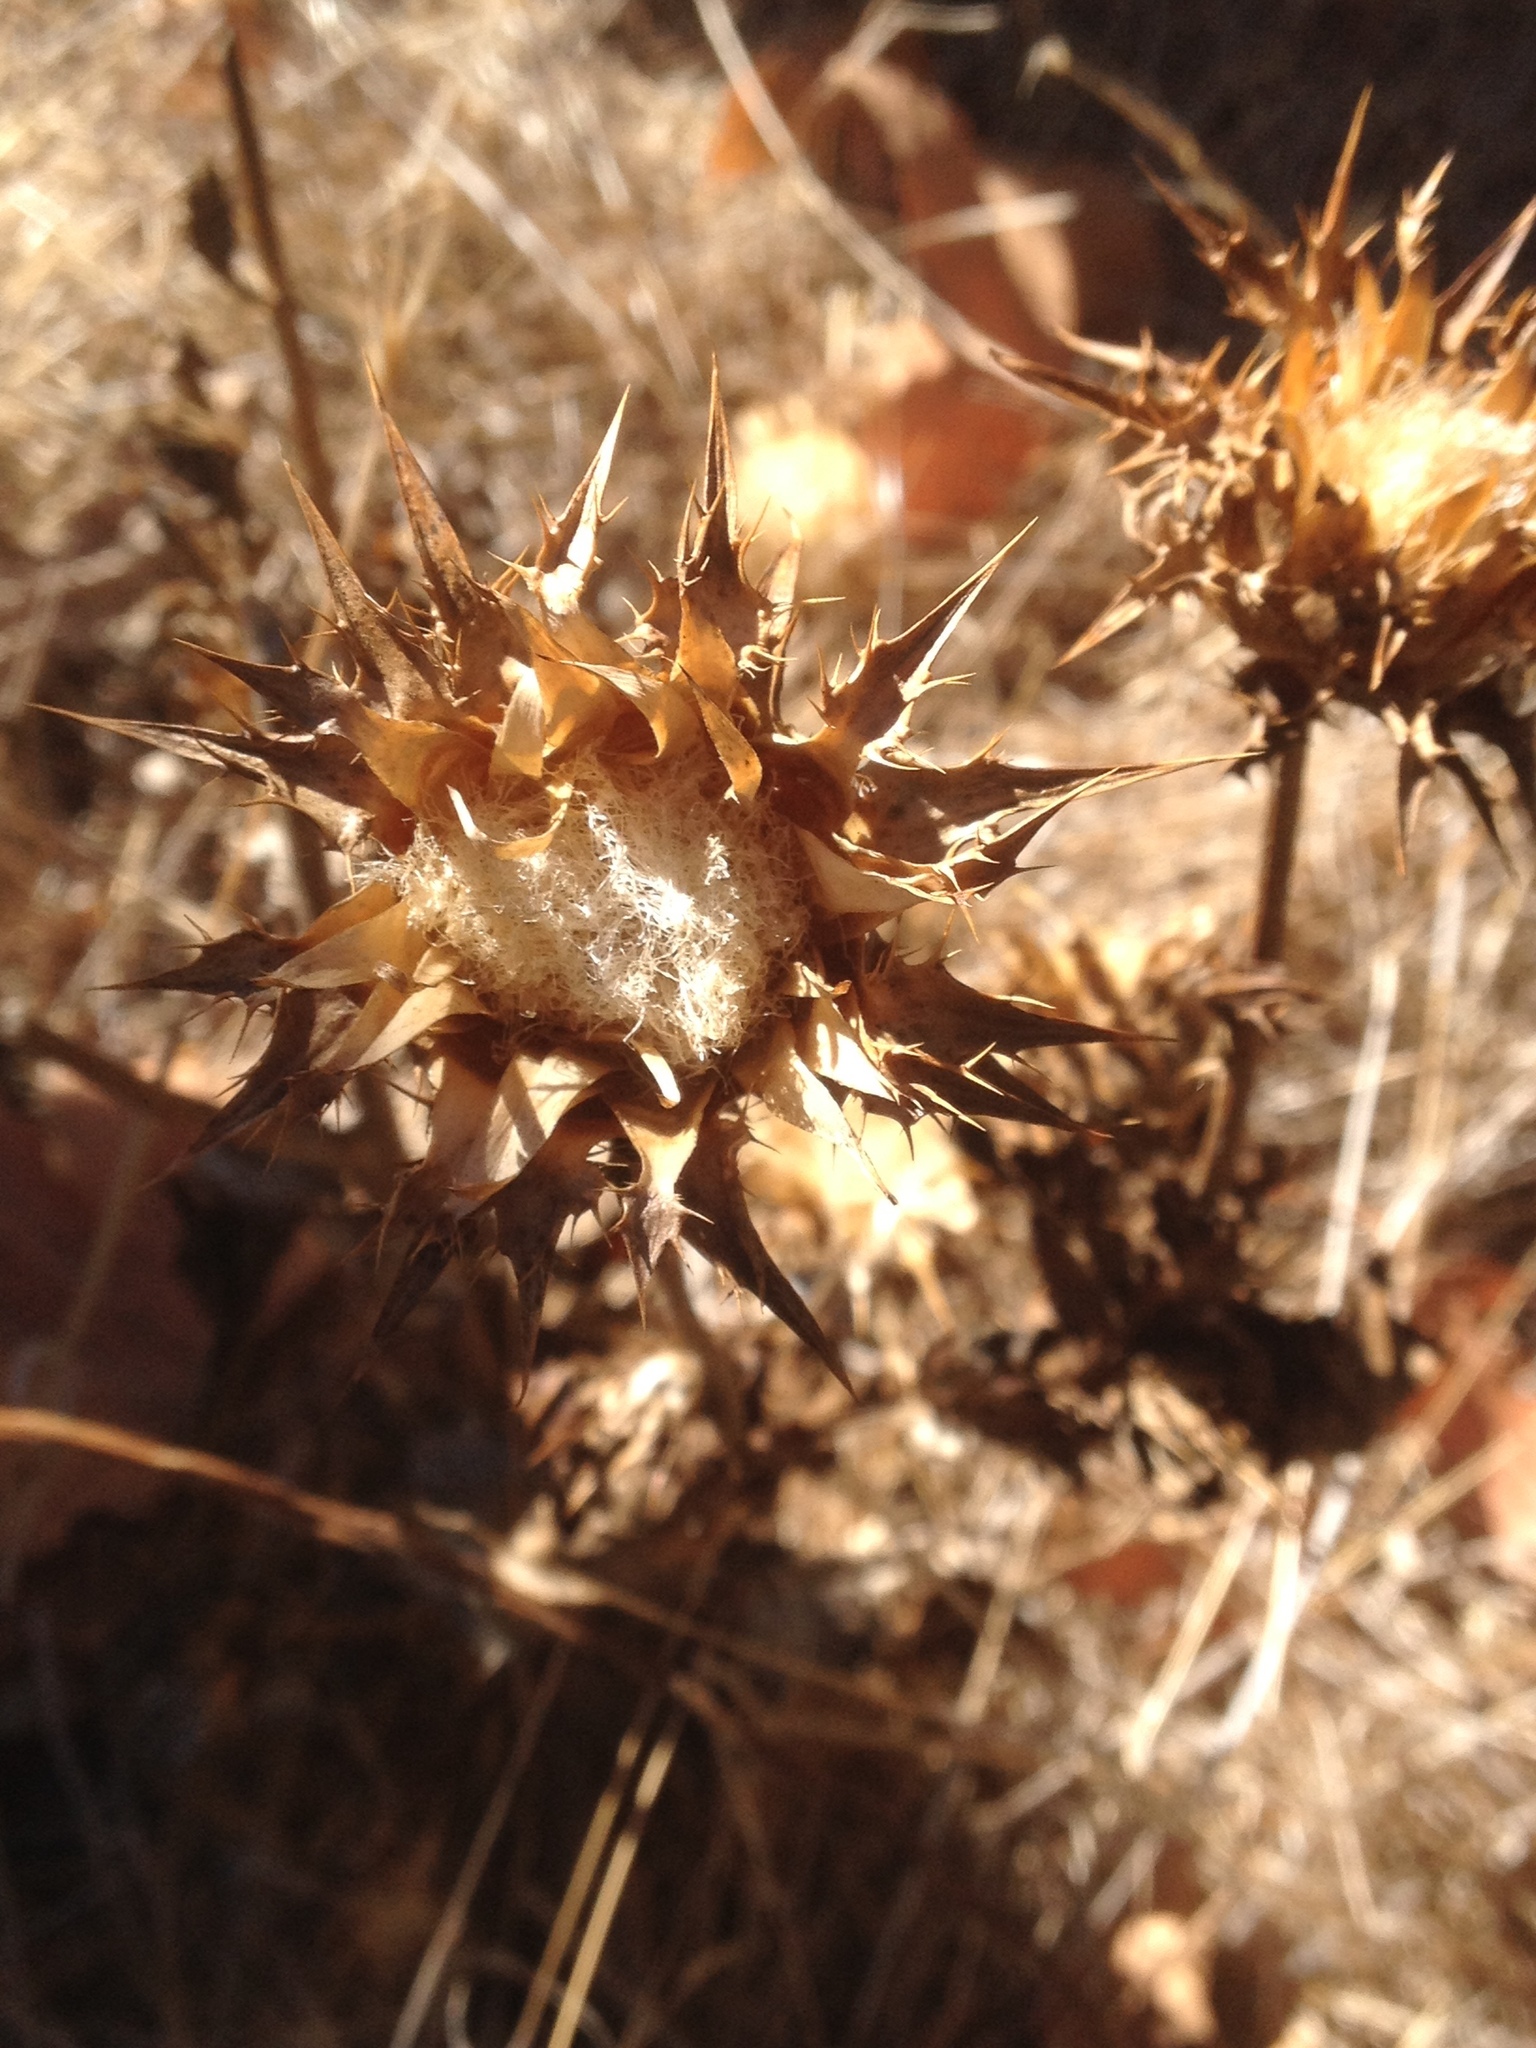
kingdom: Plantae
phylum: Tracheophyta
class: Magnoliopsida
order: Asterales
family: Asteraceae
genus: Silybum
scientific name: Silybum marianum
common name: Milk thistle
